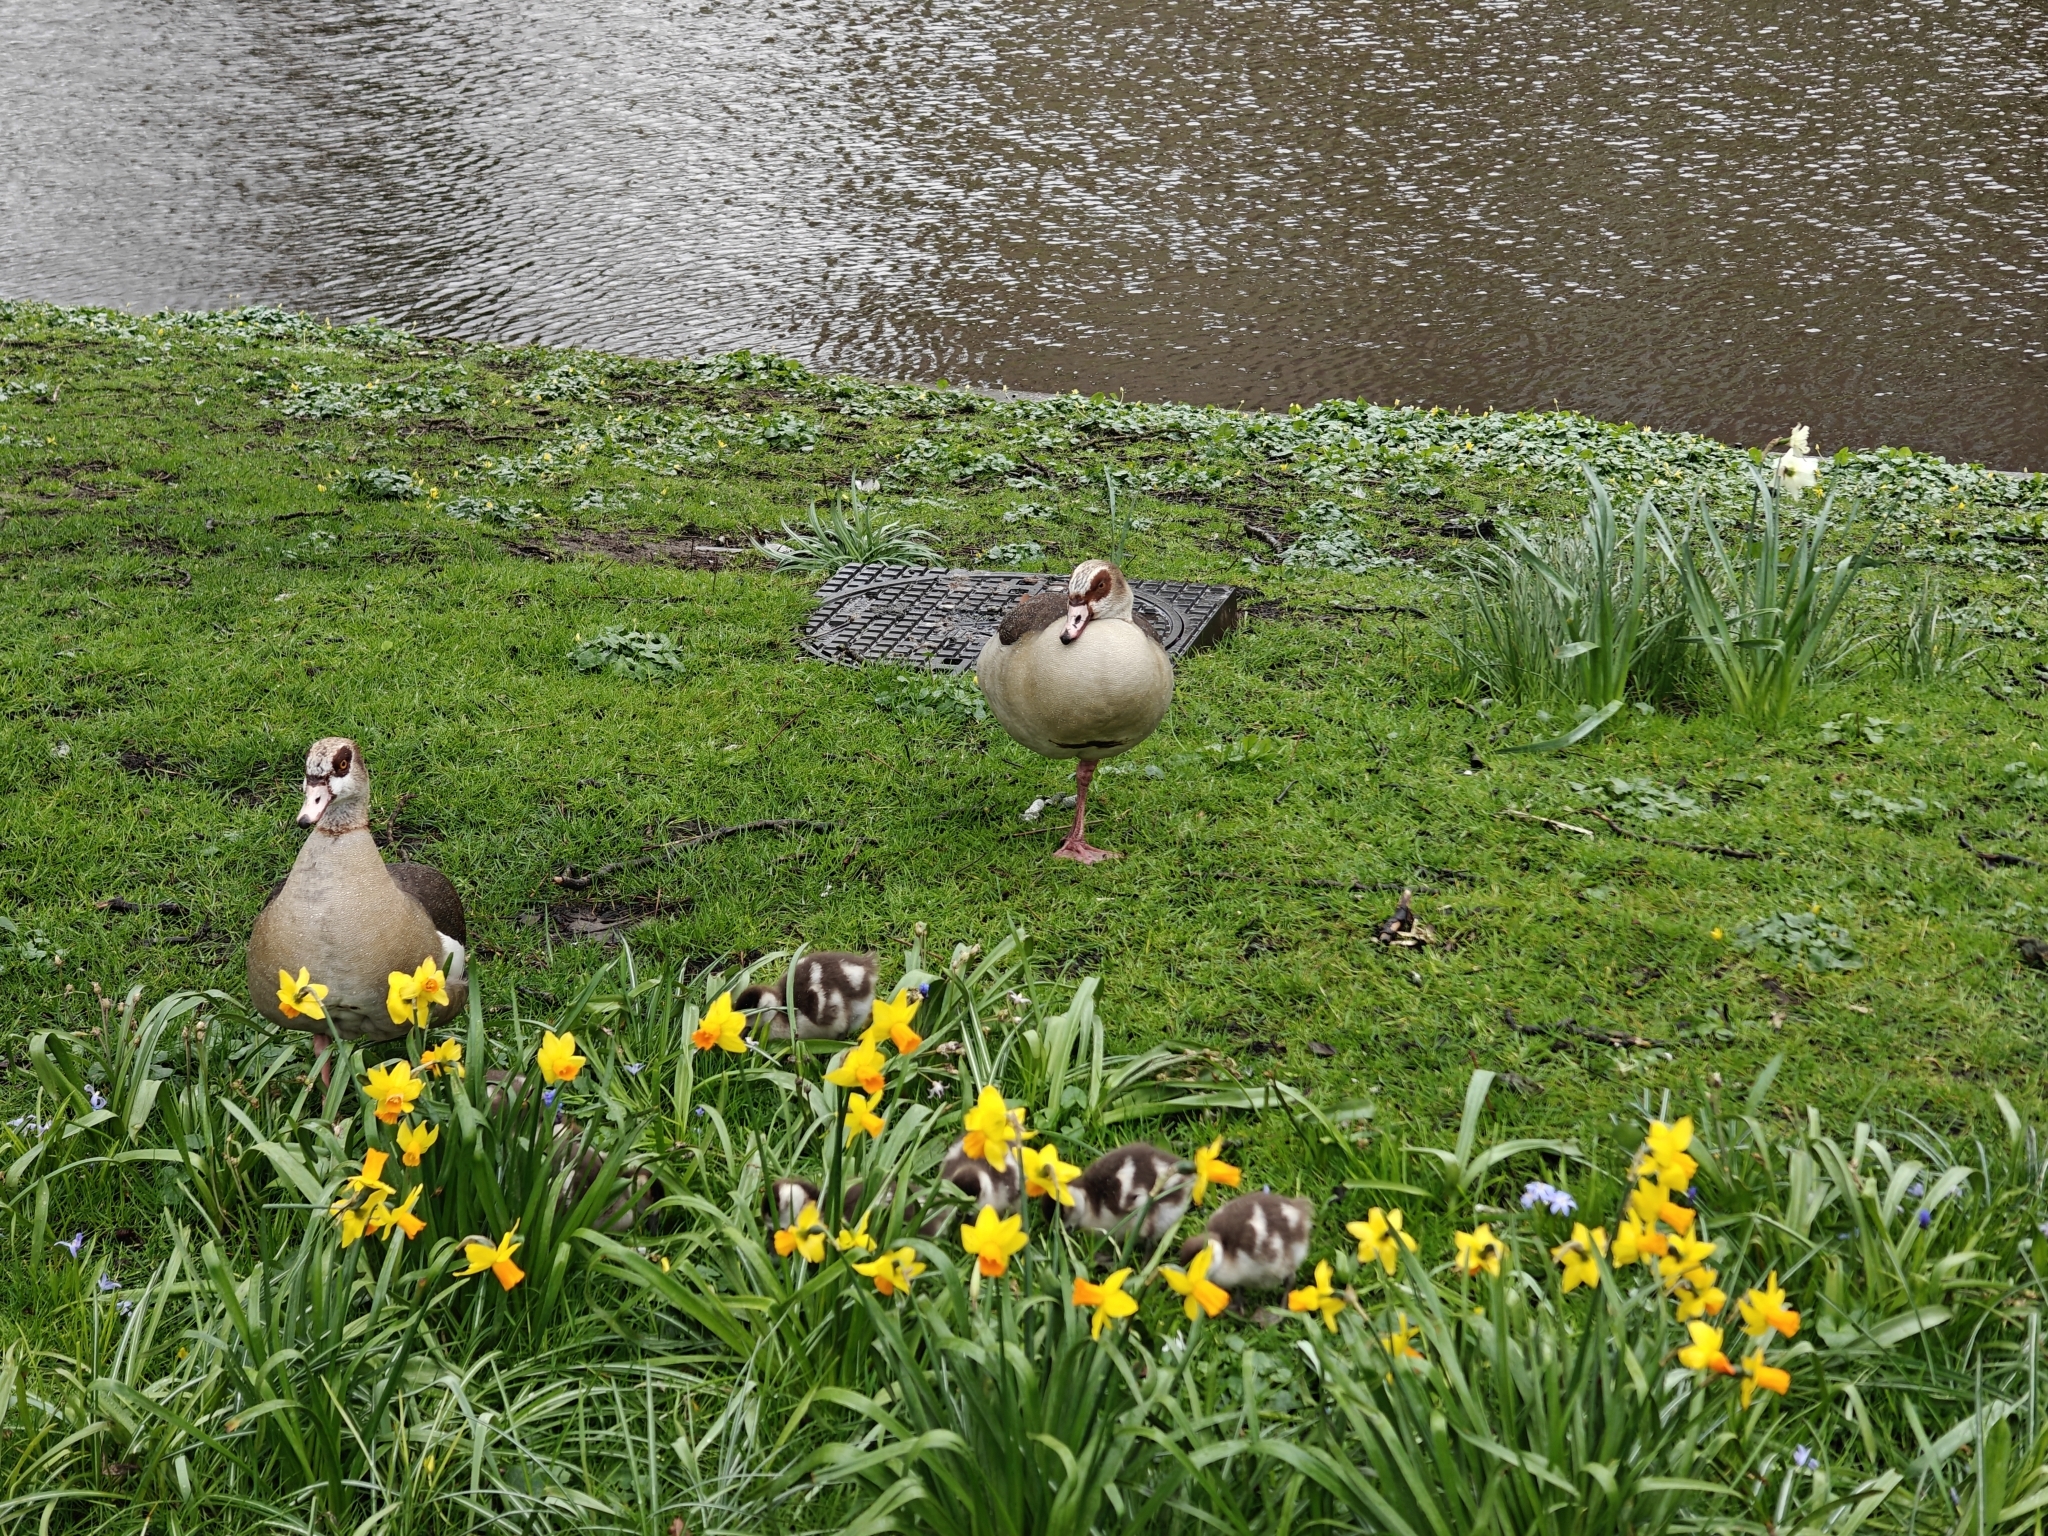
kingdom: Animalia
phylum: Chordata
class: Aves
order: Anseriformes
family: Anatidae
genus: Alopochen
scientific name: Alopochen aegyptiaca
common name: Egyptian goose
